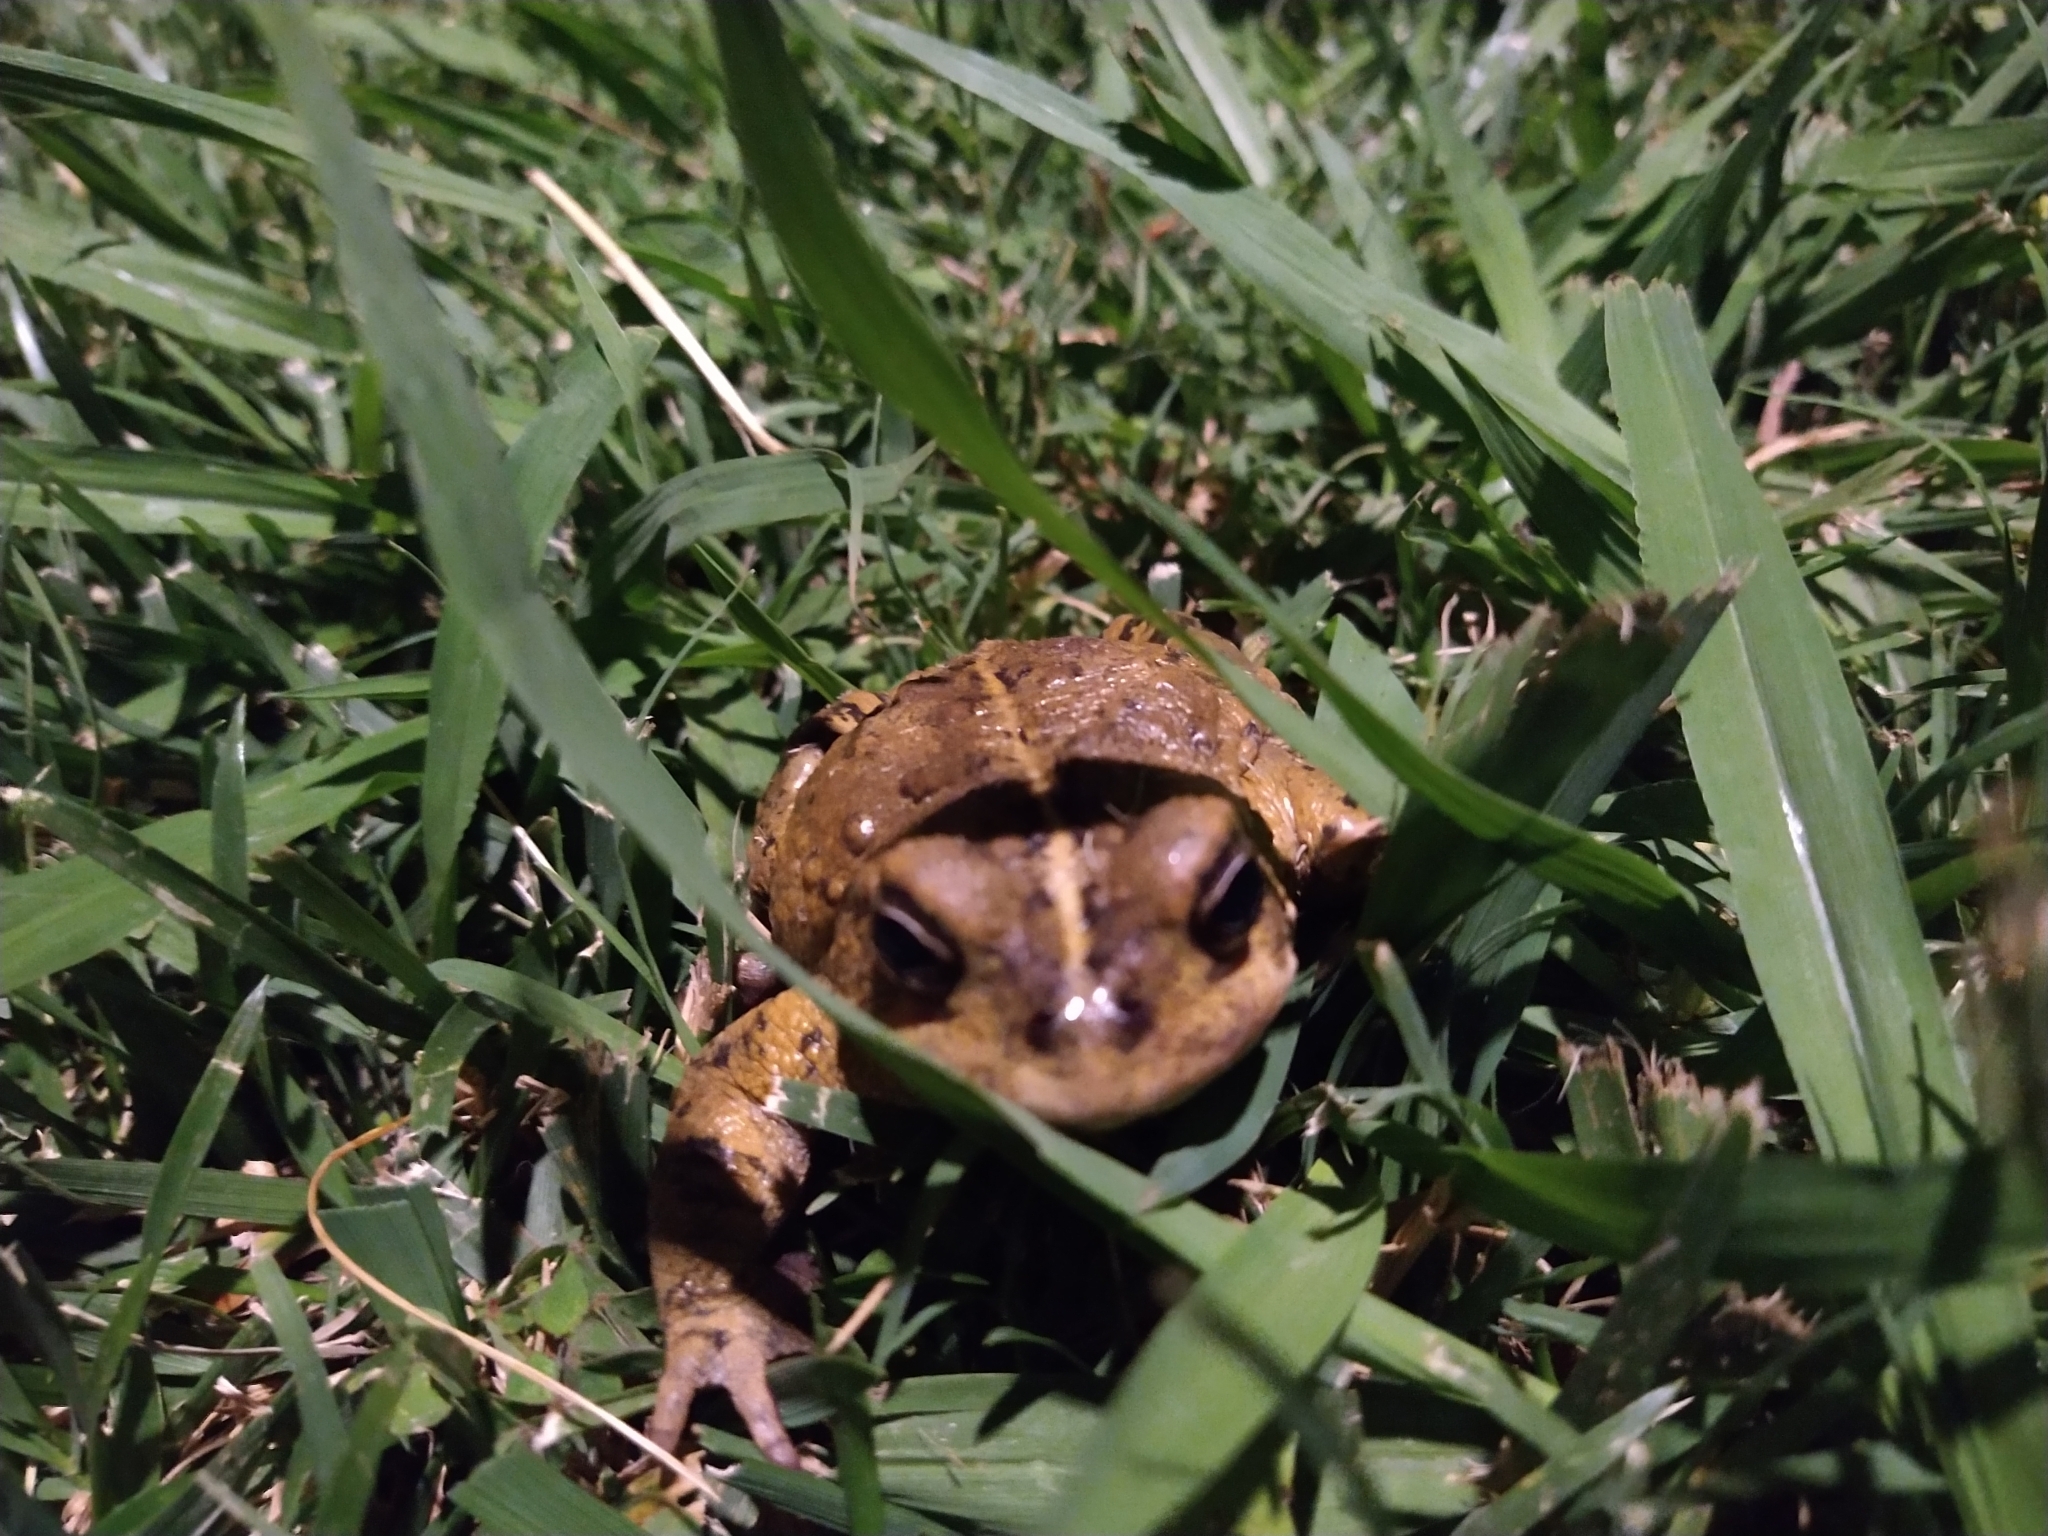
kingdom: Animalia
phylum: Chordata
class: Amphibia
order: Anura
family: Bufonidae
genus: Anaxyrus
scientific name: Anaxyrus boreas
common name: Western toad
